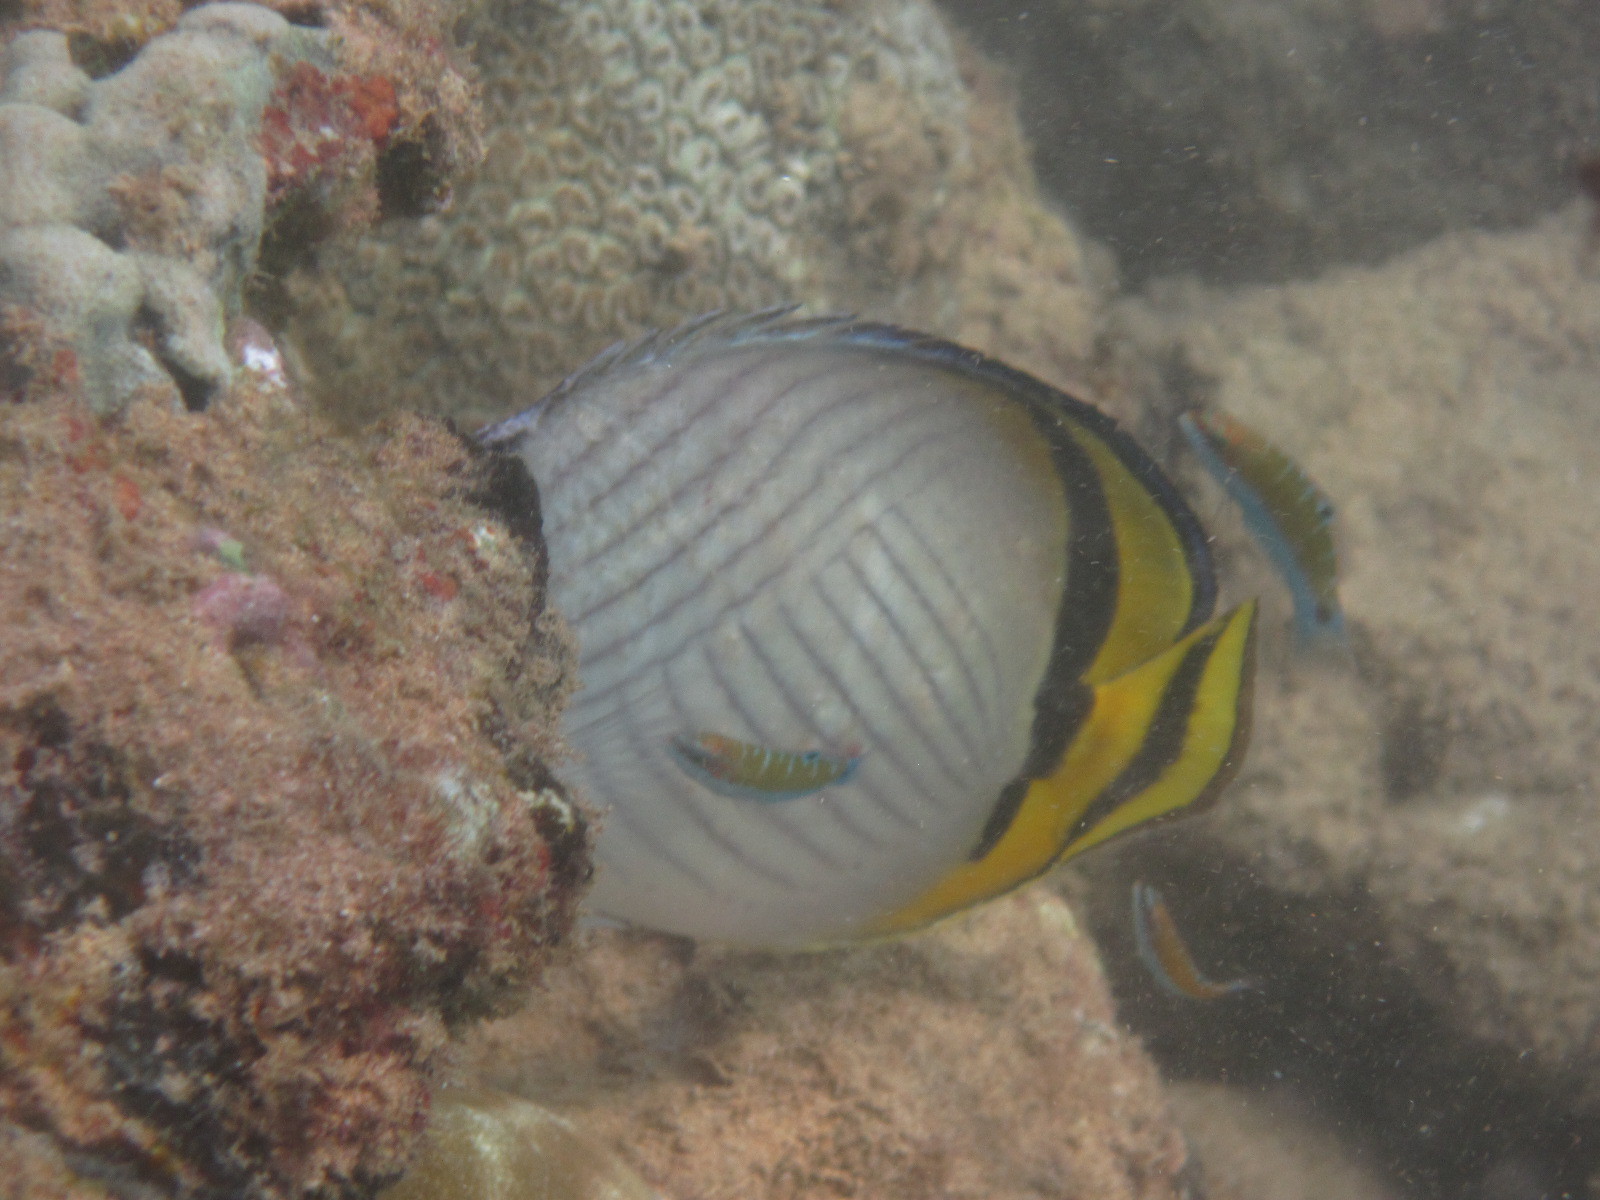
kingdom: Animalia
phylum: Chordata
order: Perciformes
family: Chaetodontidae
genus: Chaetodon
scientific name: Chaetodon vagabundus
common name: Vagabond butterflyfish
